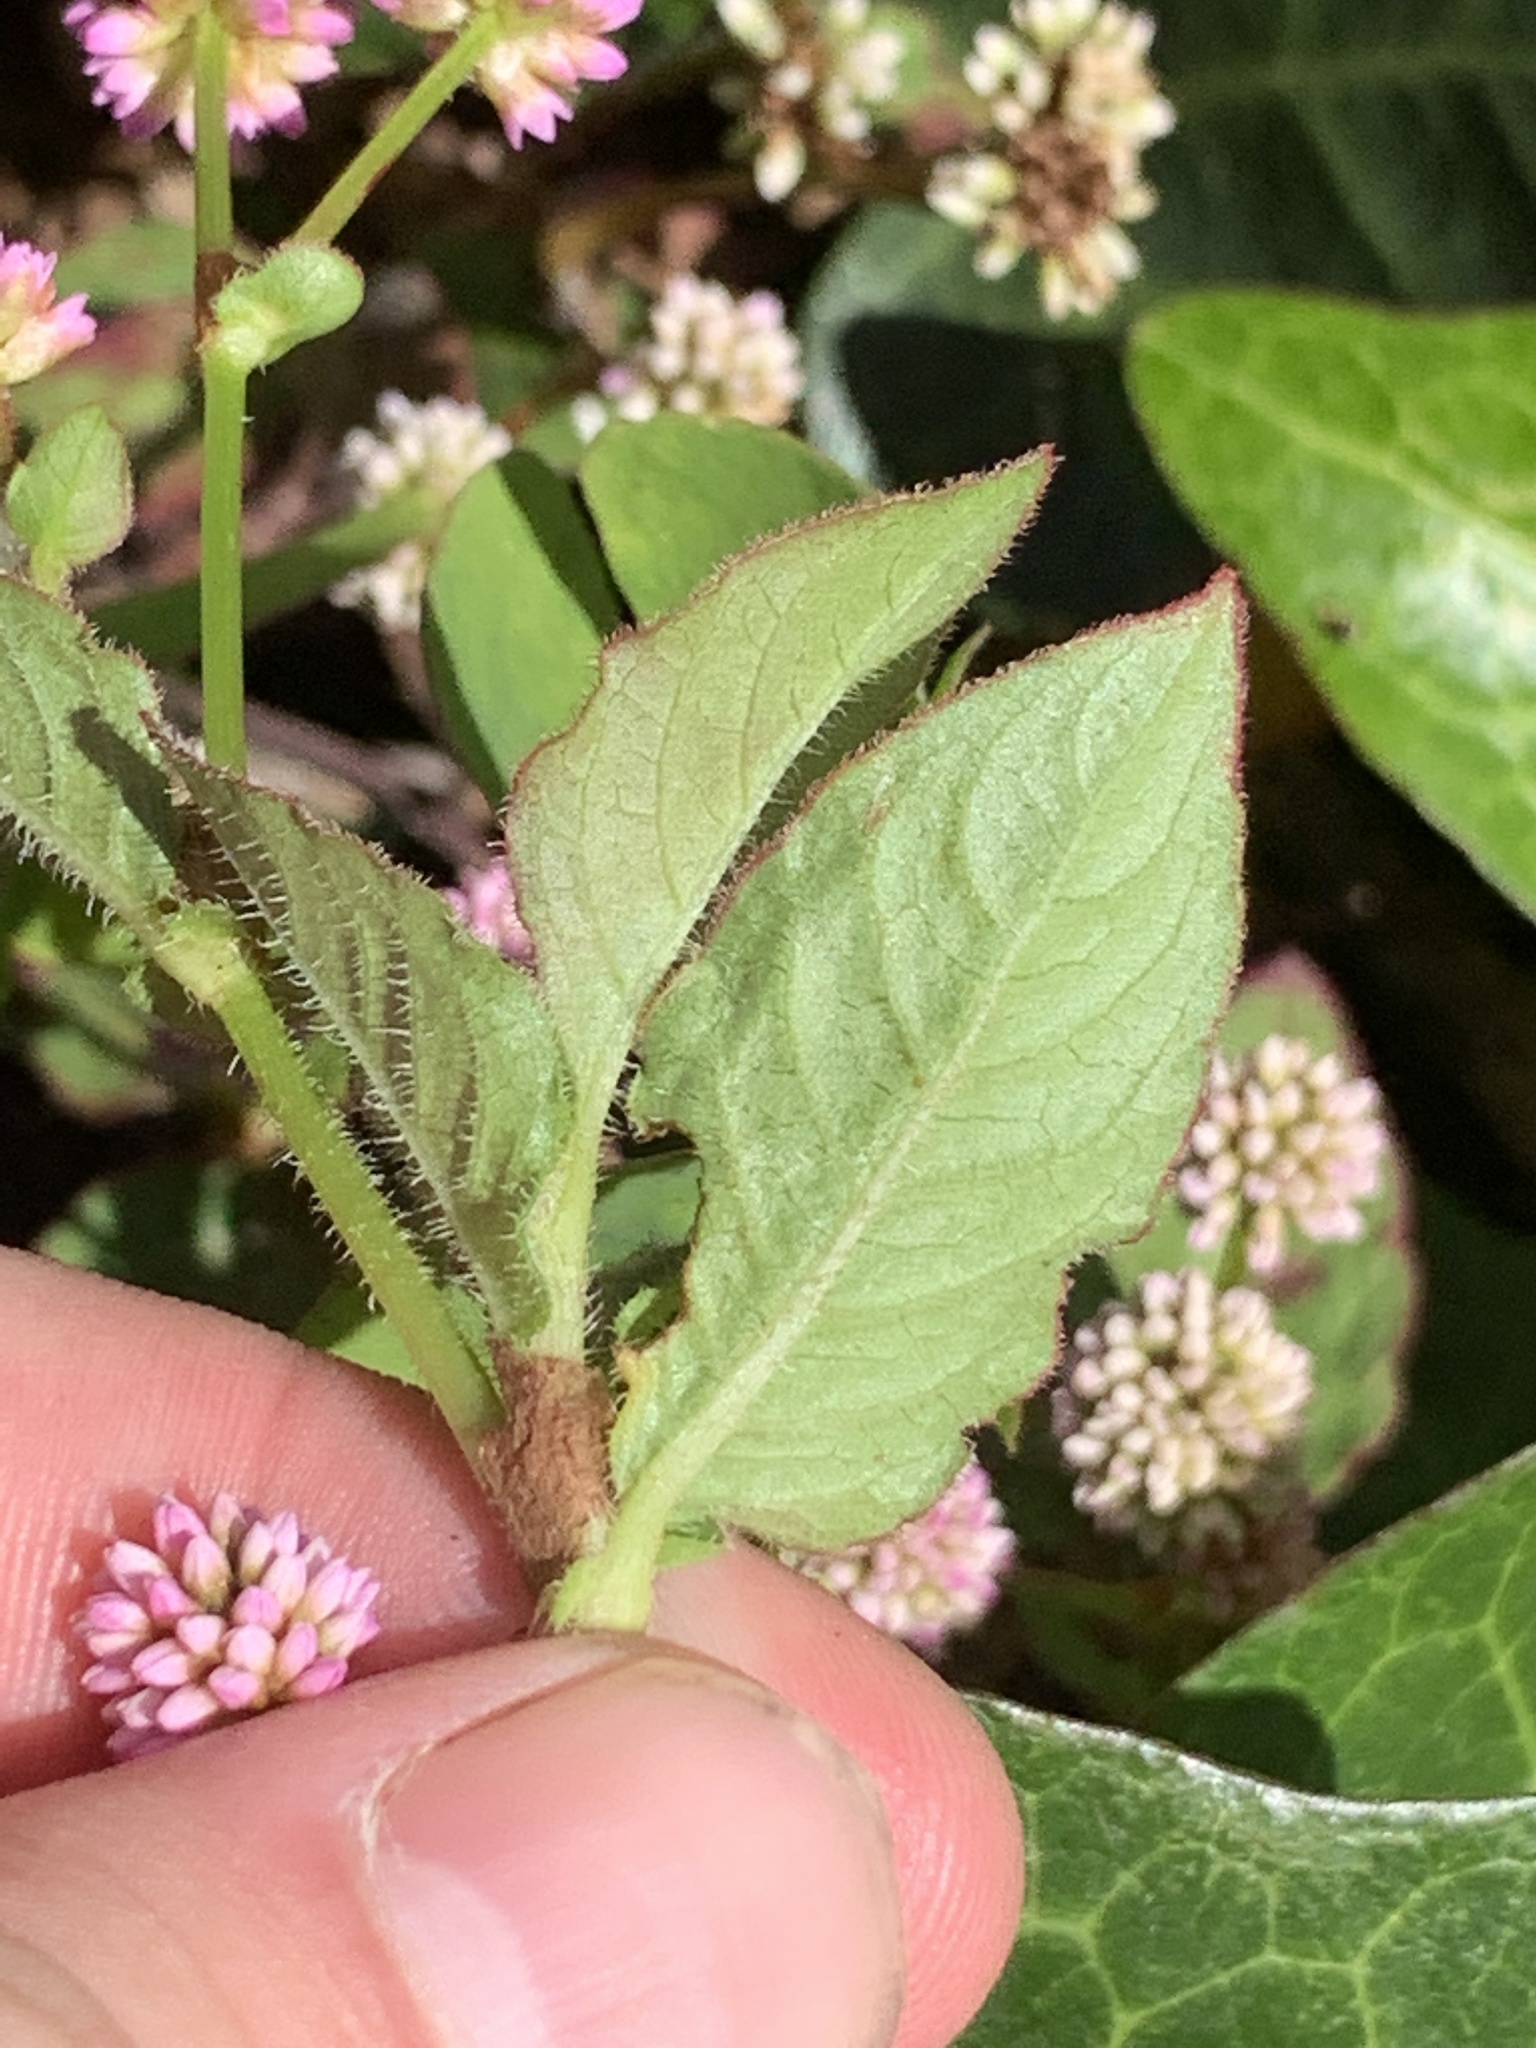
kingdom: Plantae
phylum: Tracheophyta
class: Magnoliopsida
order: Caryophyllales
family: Polygonaceae
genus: Persicaria
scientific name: Persicaria capitata
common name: Pinkhead smartweed
